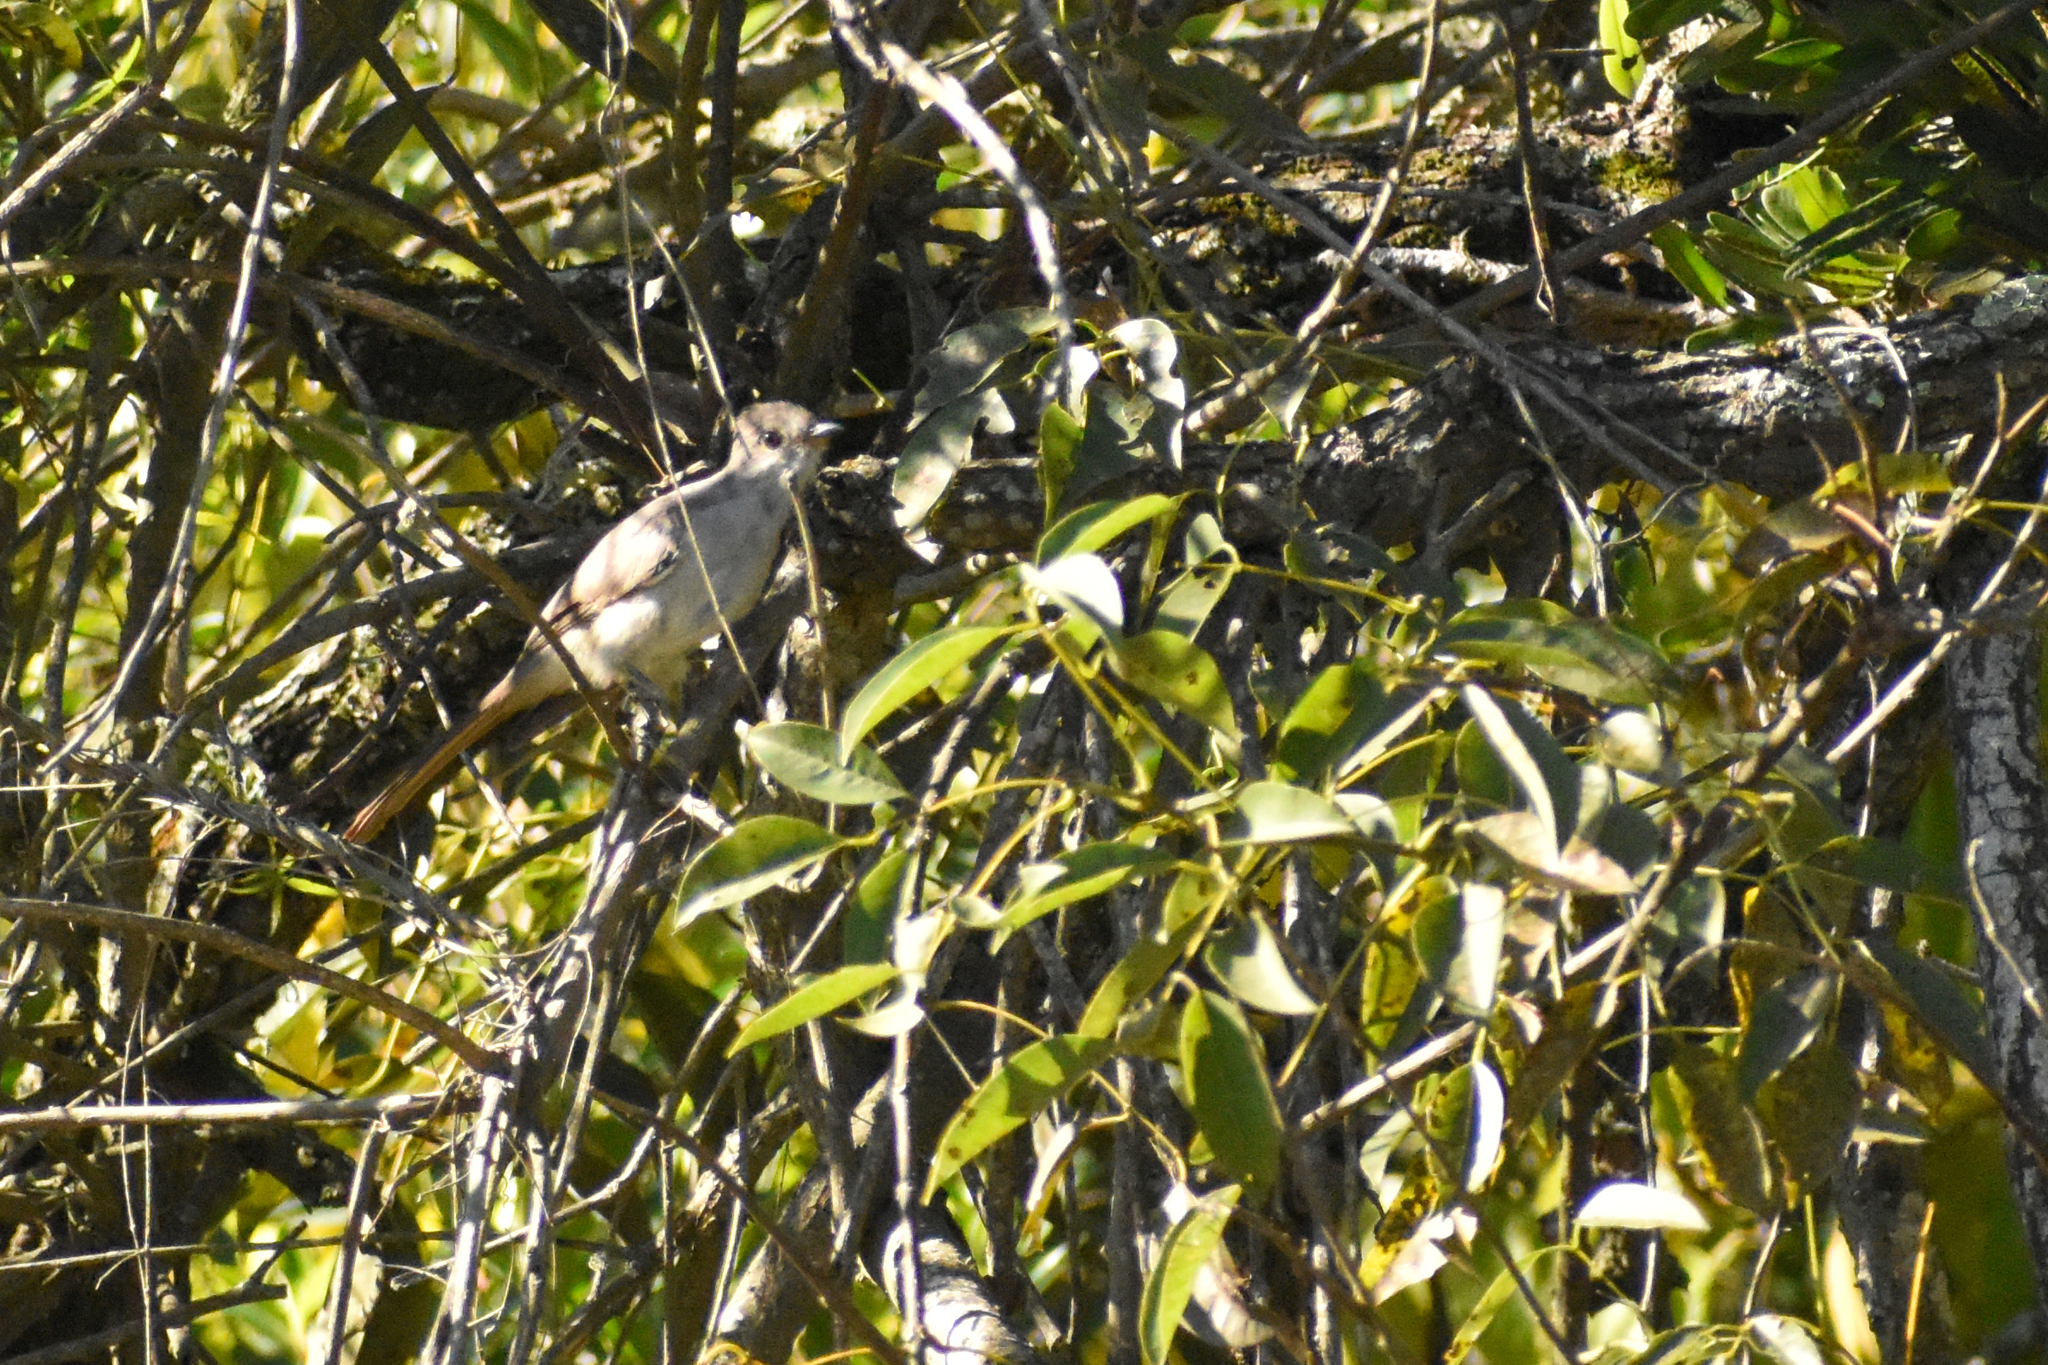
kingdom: Animalia
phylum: Chordata
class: Aves
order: Cuculiformes
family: Cuculidae
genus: Coccyzus
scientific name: Coccyzus cinereus
